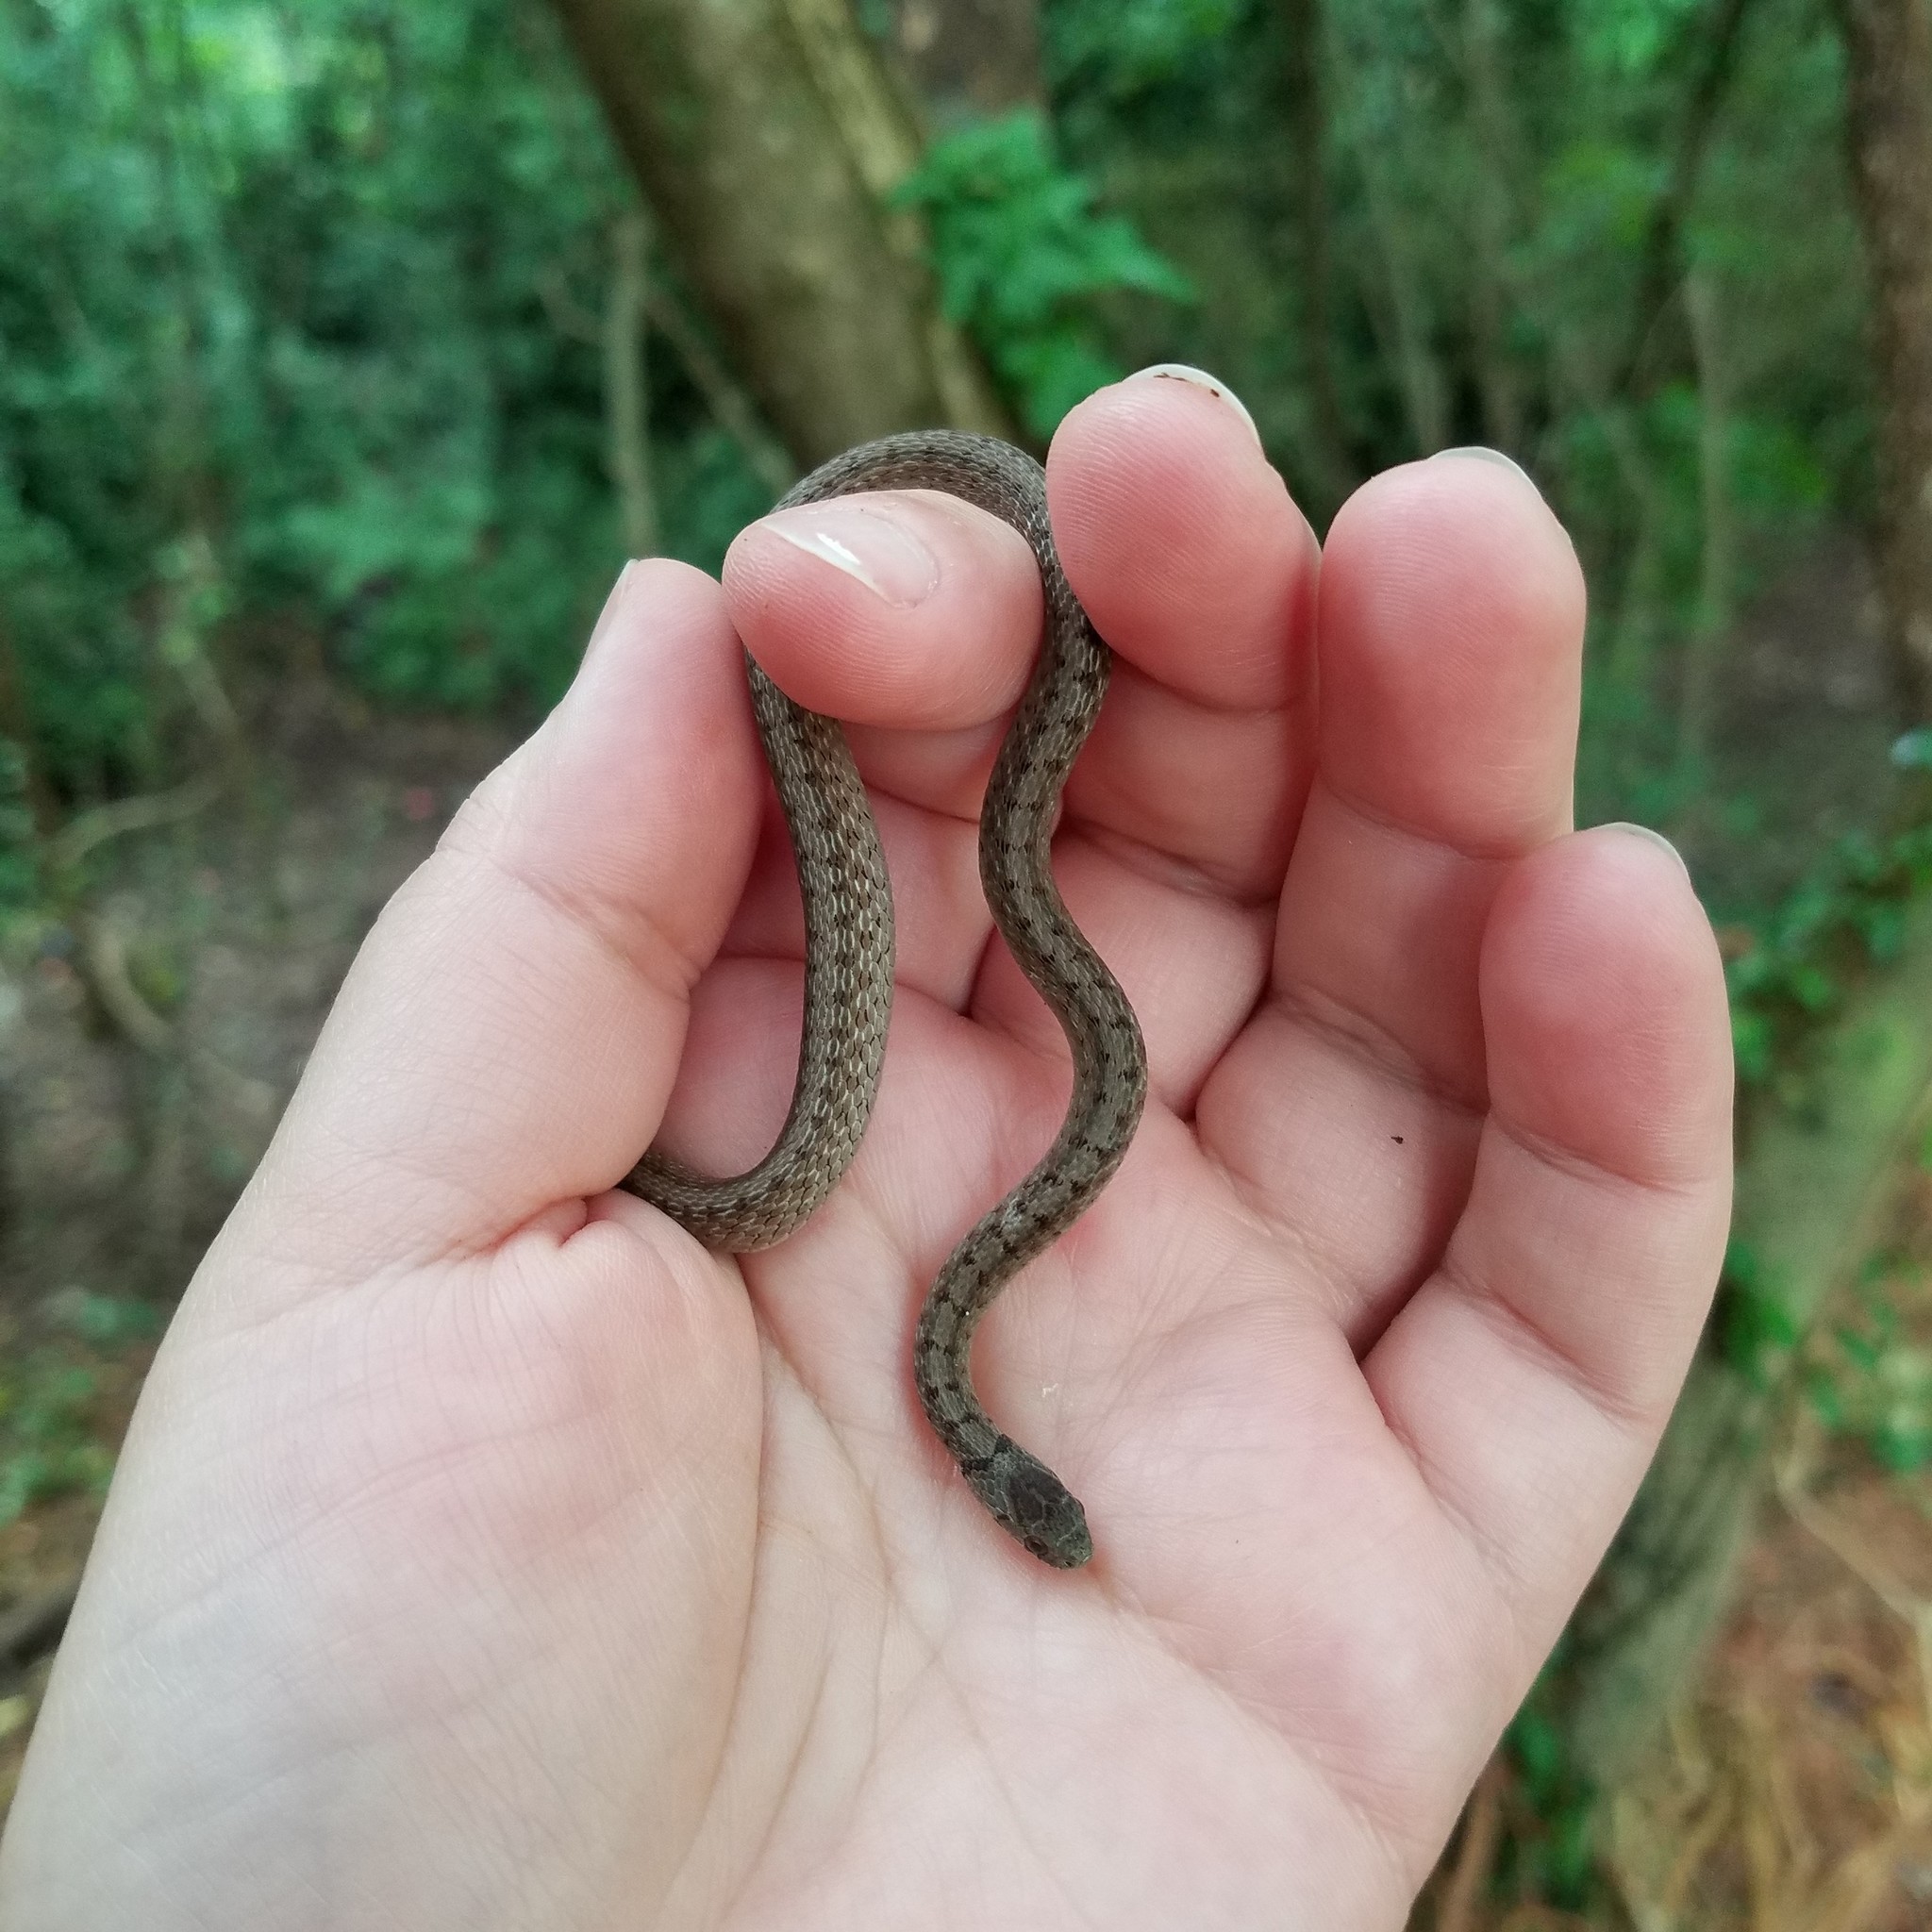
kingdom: Animalia
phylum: Chordata
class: Squamata
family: Colubridae
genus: Storeria
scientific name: Storeria dekayi
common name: (dekay’s) brown snake
